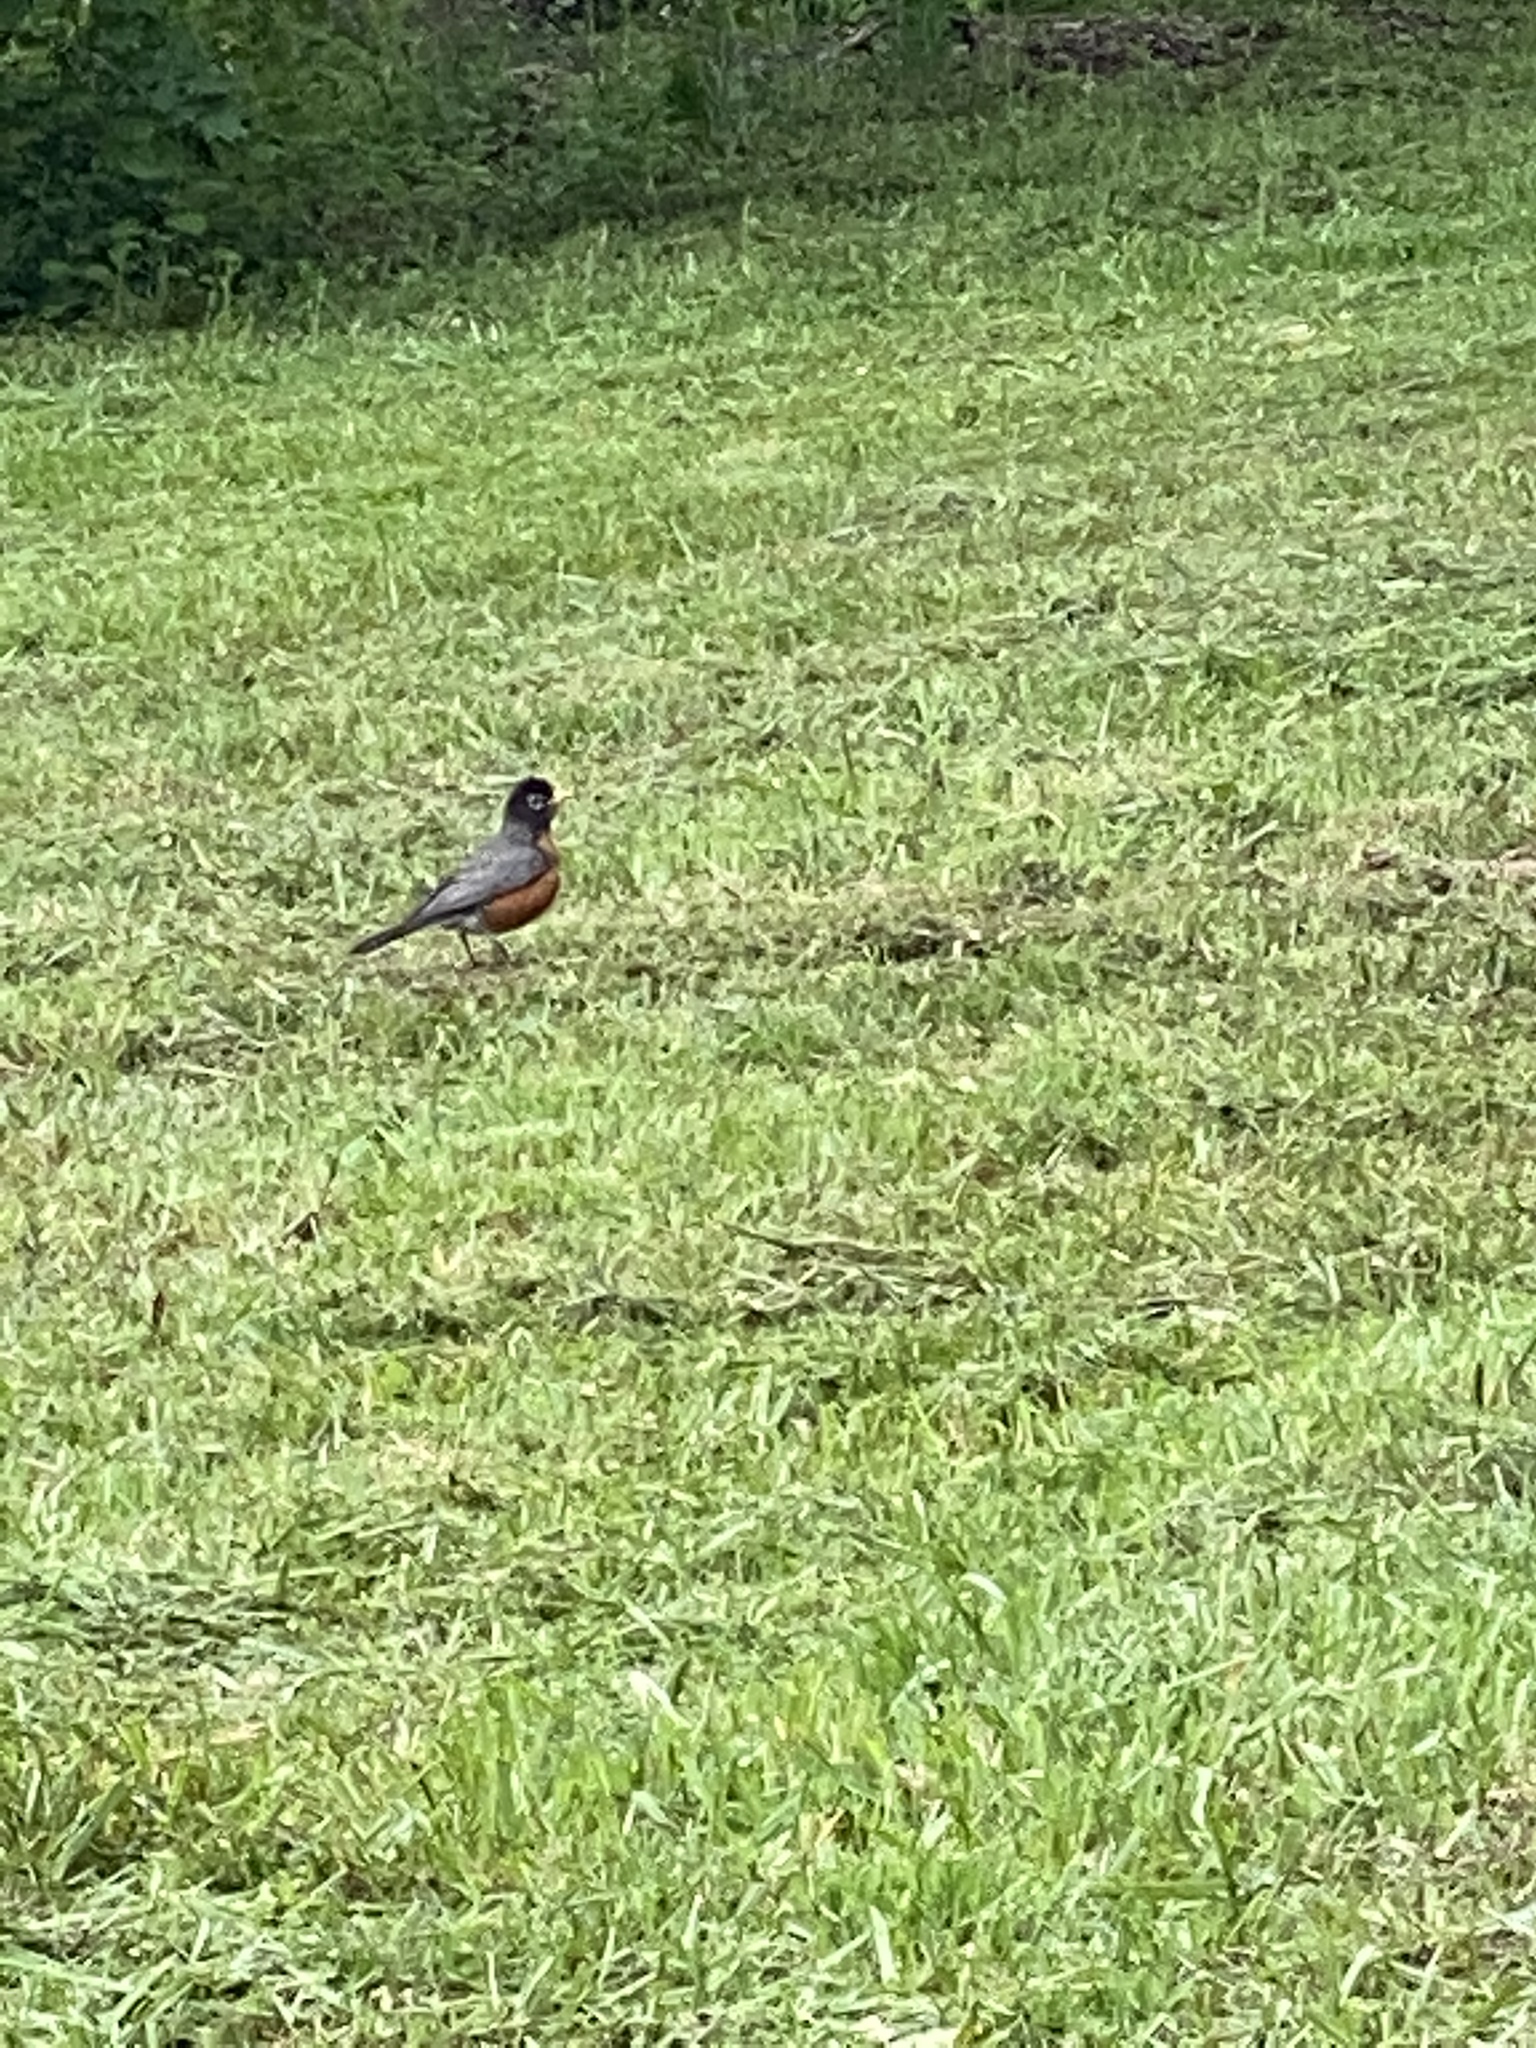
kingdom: Animalia
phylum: Chordata
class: Aves
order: Passeriformes
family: Turdidae
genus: Turdus
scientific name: Turdus migratorius
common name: American robin
